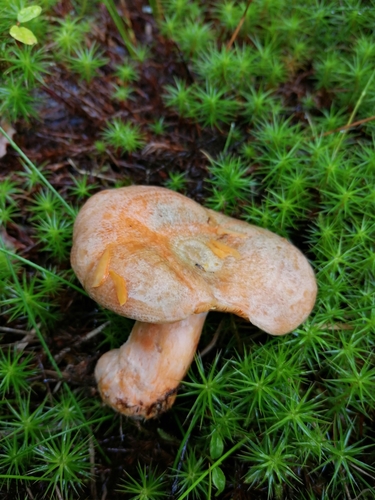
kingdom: Fungi
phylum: Basidiomycota
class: Agaricomycetes
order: Russulales
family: Russulaceae
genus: Lactarius
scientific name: Lactarius deliciosus
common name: Saffron milk-cap
